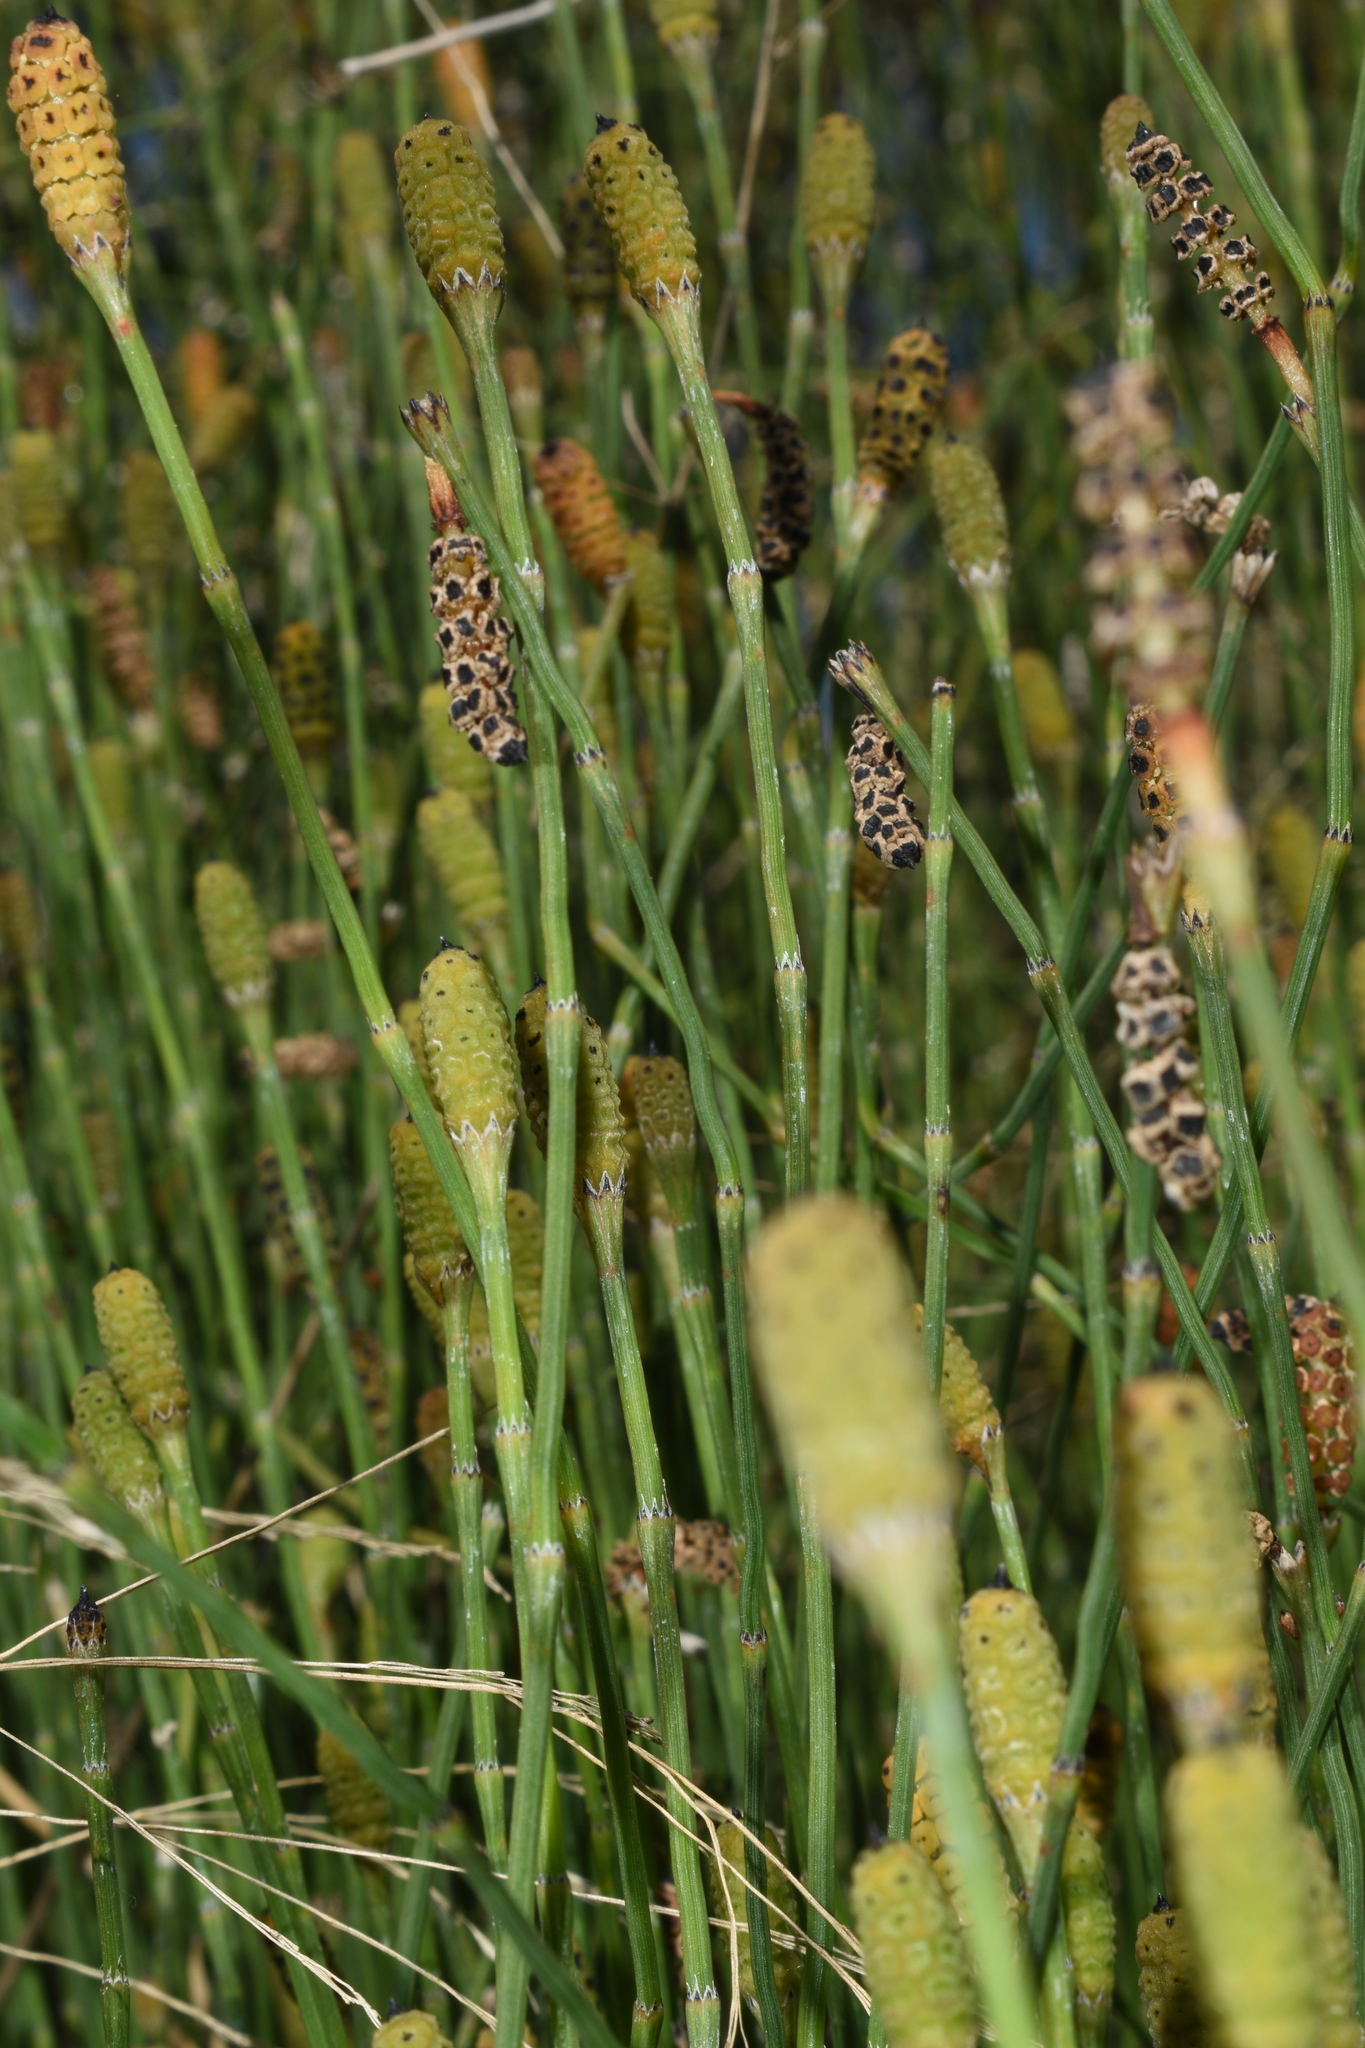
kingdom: Plantae
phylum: Tracheophyta
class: Polypodiopsida
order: Equisetales
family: Equisetaceae
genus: Equisetum
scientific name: Equisetum ramosissimum
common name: Branched horsetail
